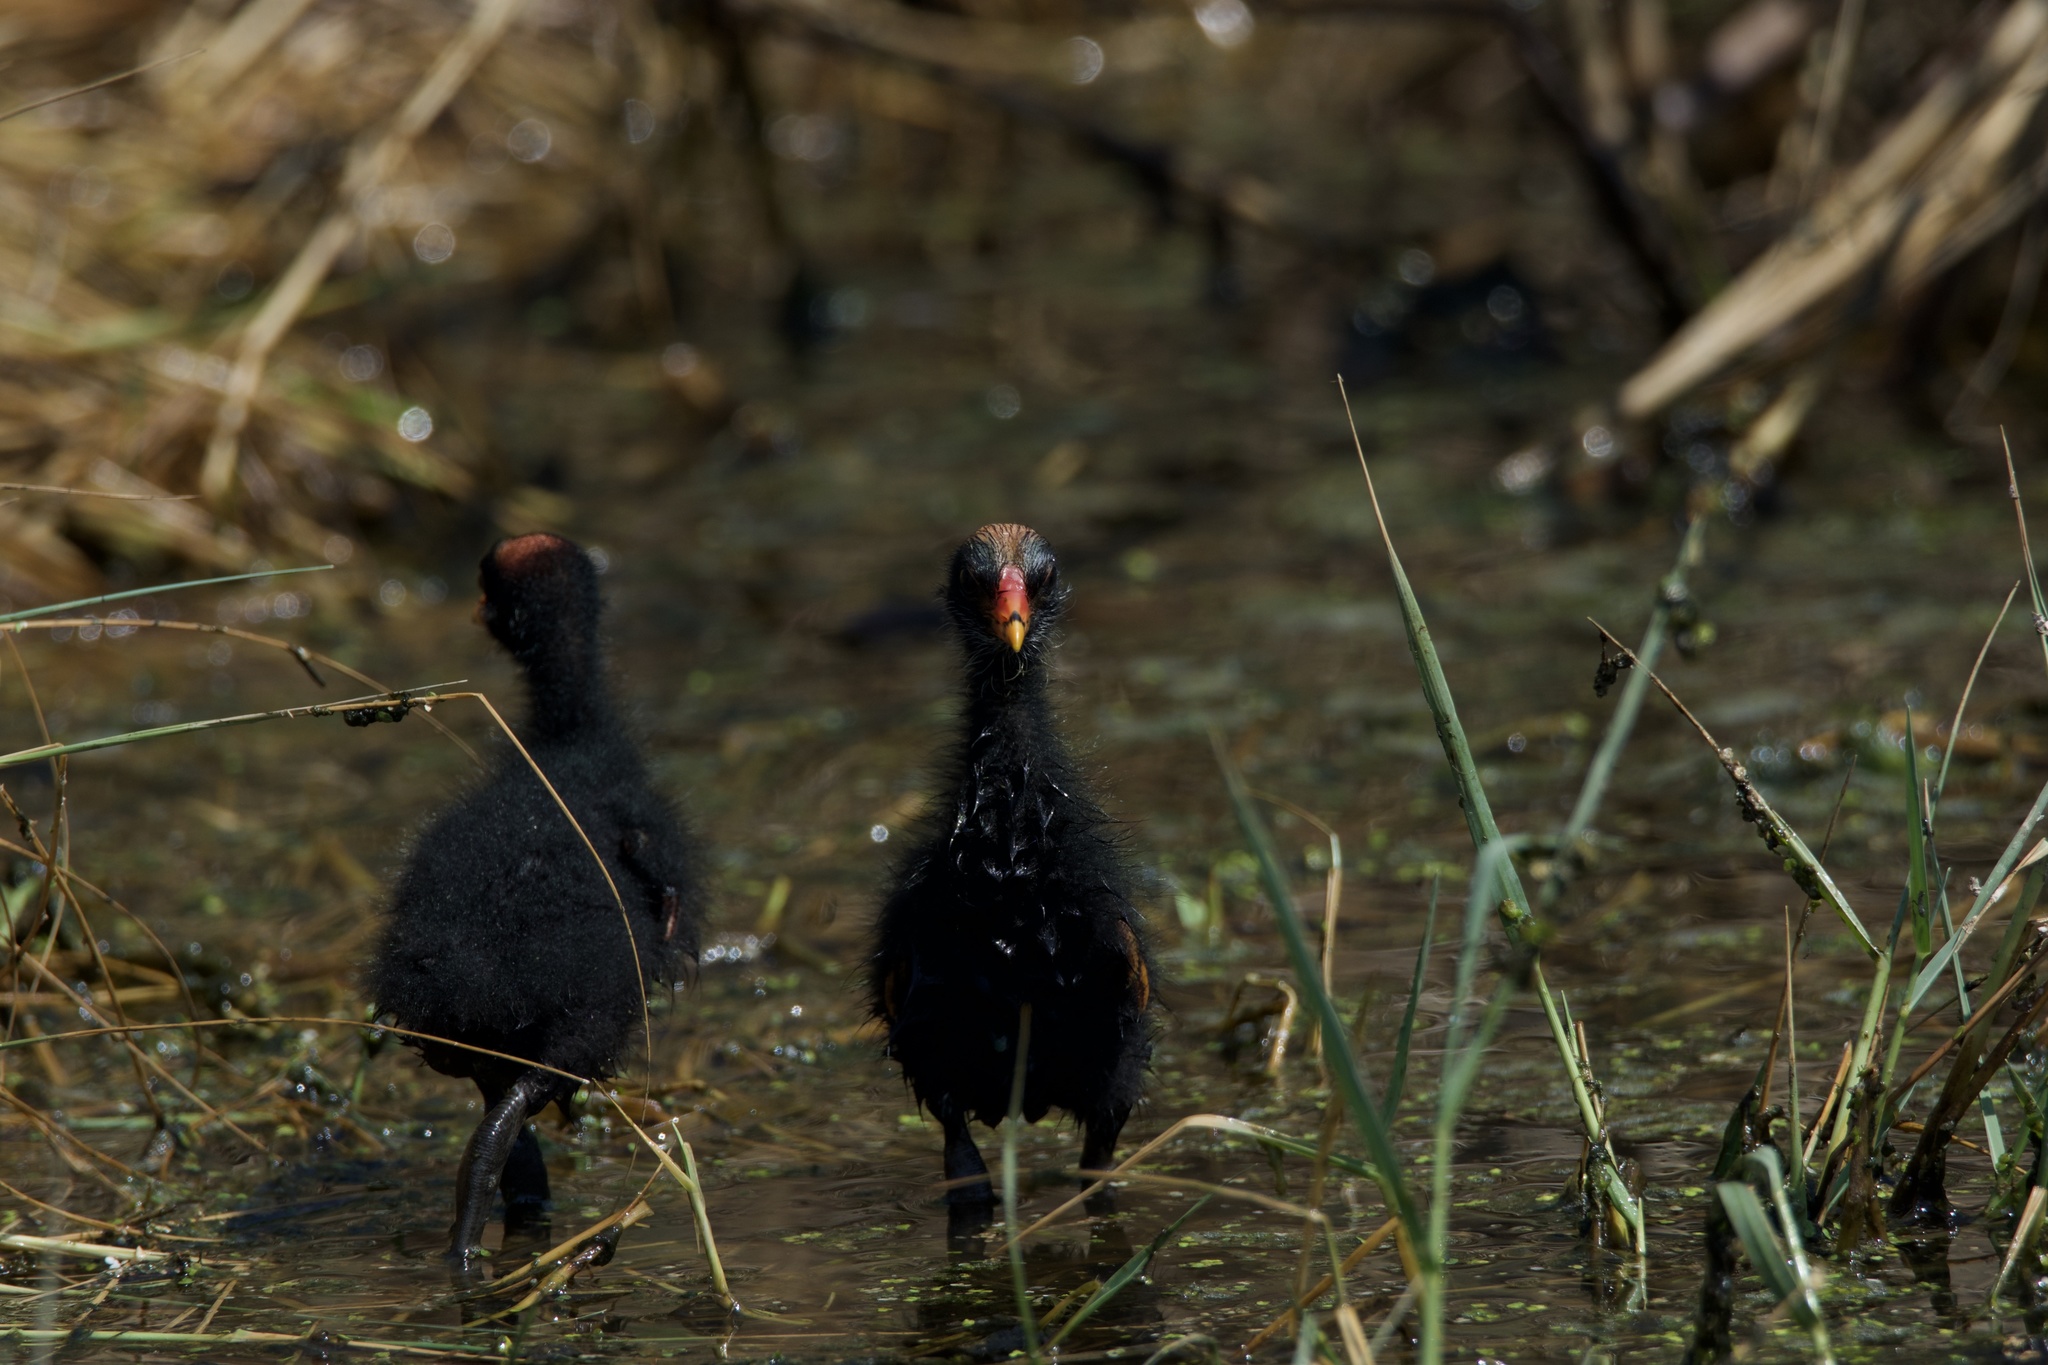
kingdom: Animalia
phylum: Chordata
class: Aves
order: Gruiformes
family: Rallidae
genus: Gallinula
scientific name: Gallinula chloropus
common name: Common moorhen
